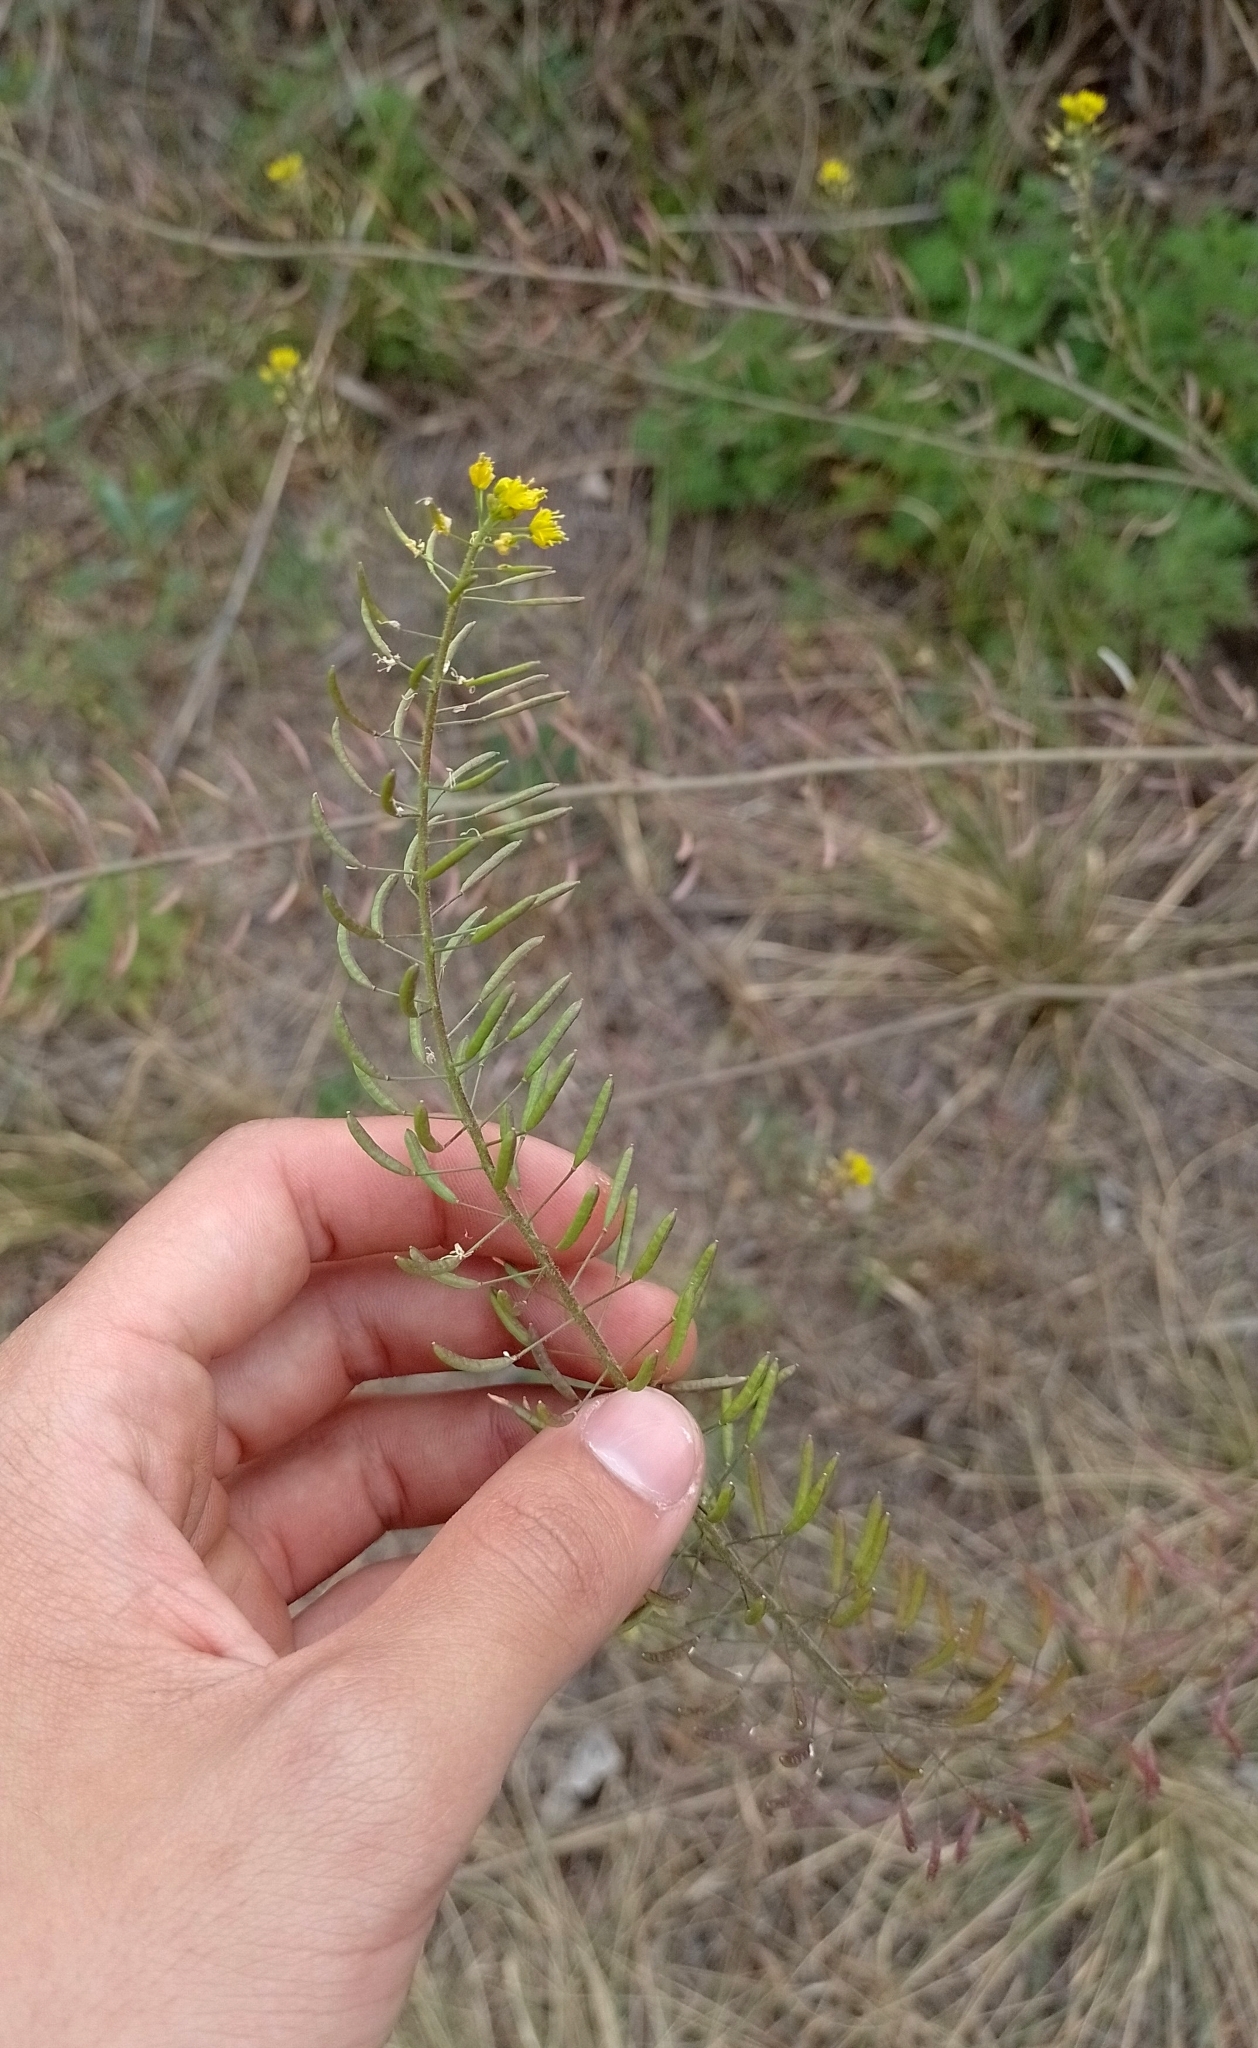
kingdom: Plantae
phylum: Tracheophyta
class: Magnoliopsida
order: Brassicales
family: Brassicaceae
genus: Descurainia
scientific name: Descurainia erodiifolia
